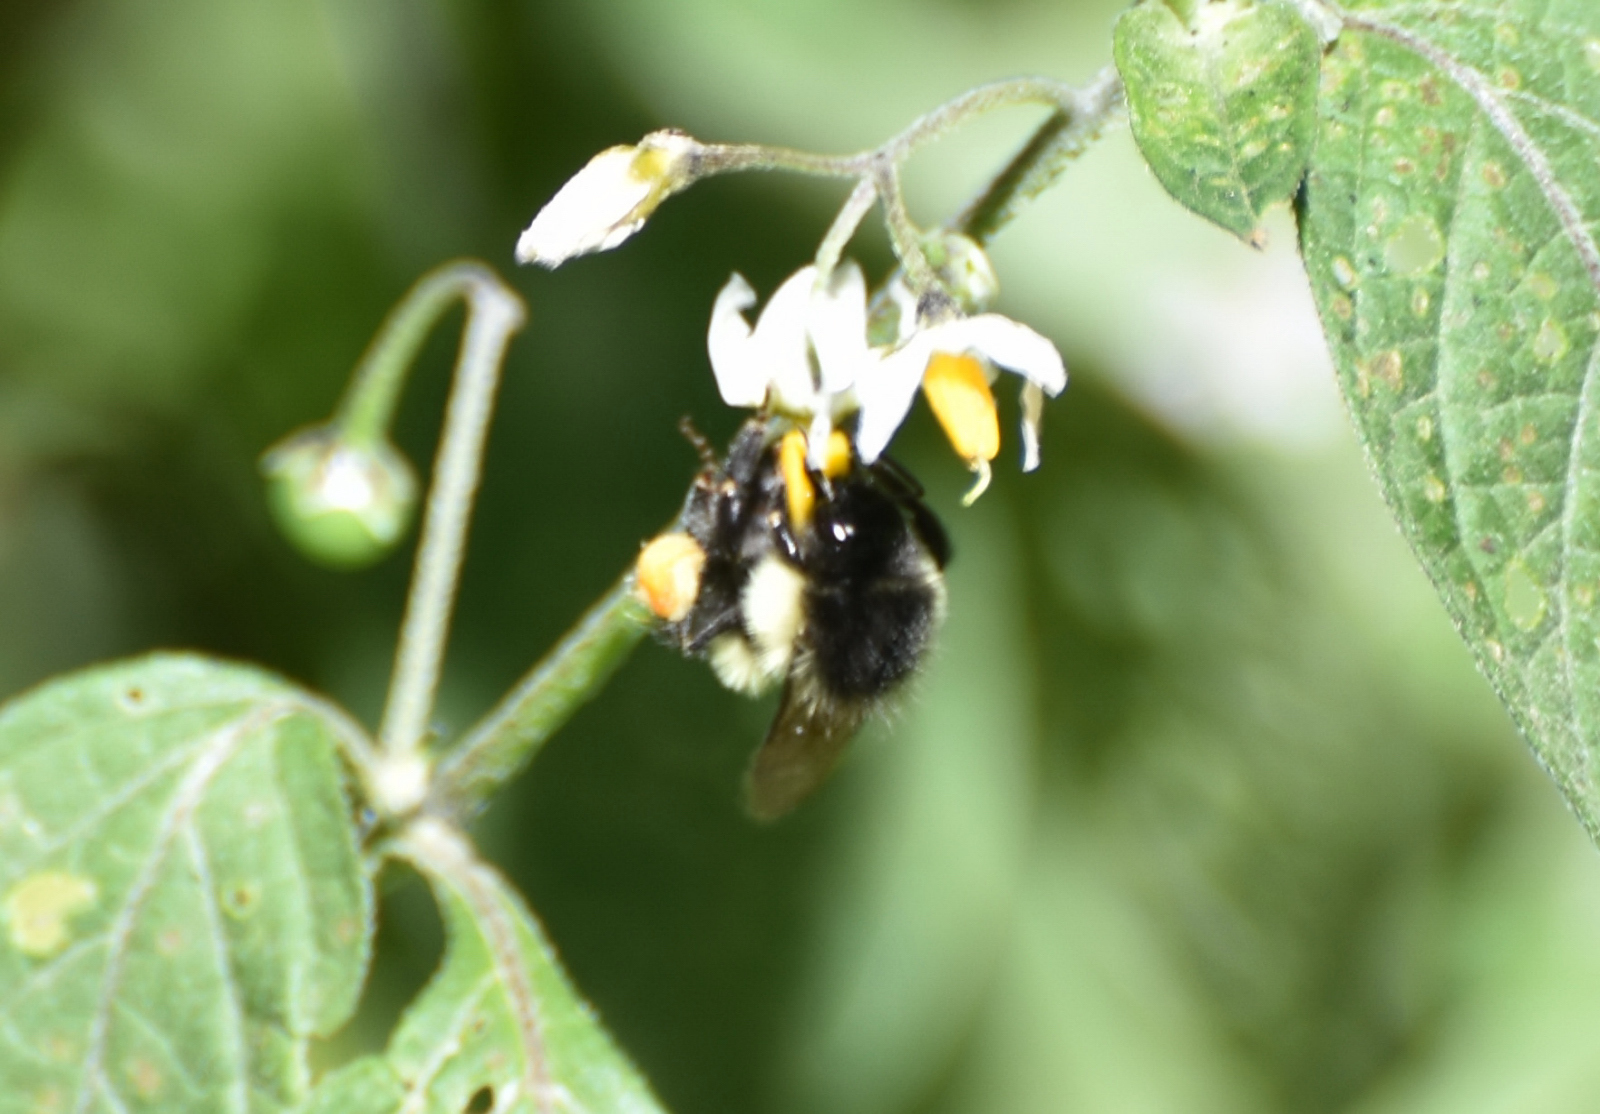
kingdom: Animalia
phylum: Arthropoda
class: Insecta
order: Hymenoptera
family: Apidae
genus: Bombus
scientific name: Bombus ephippiatus
